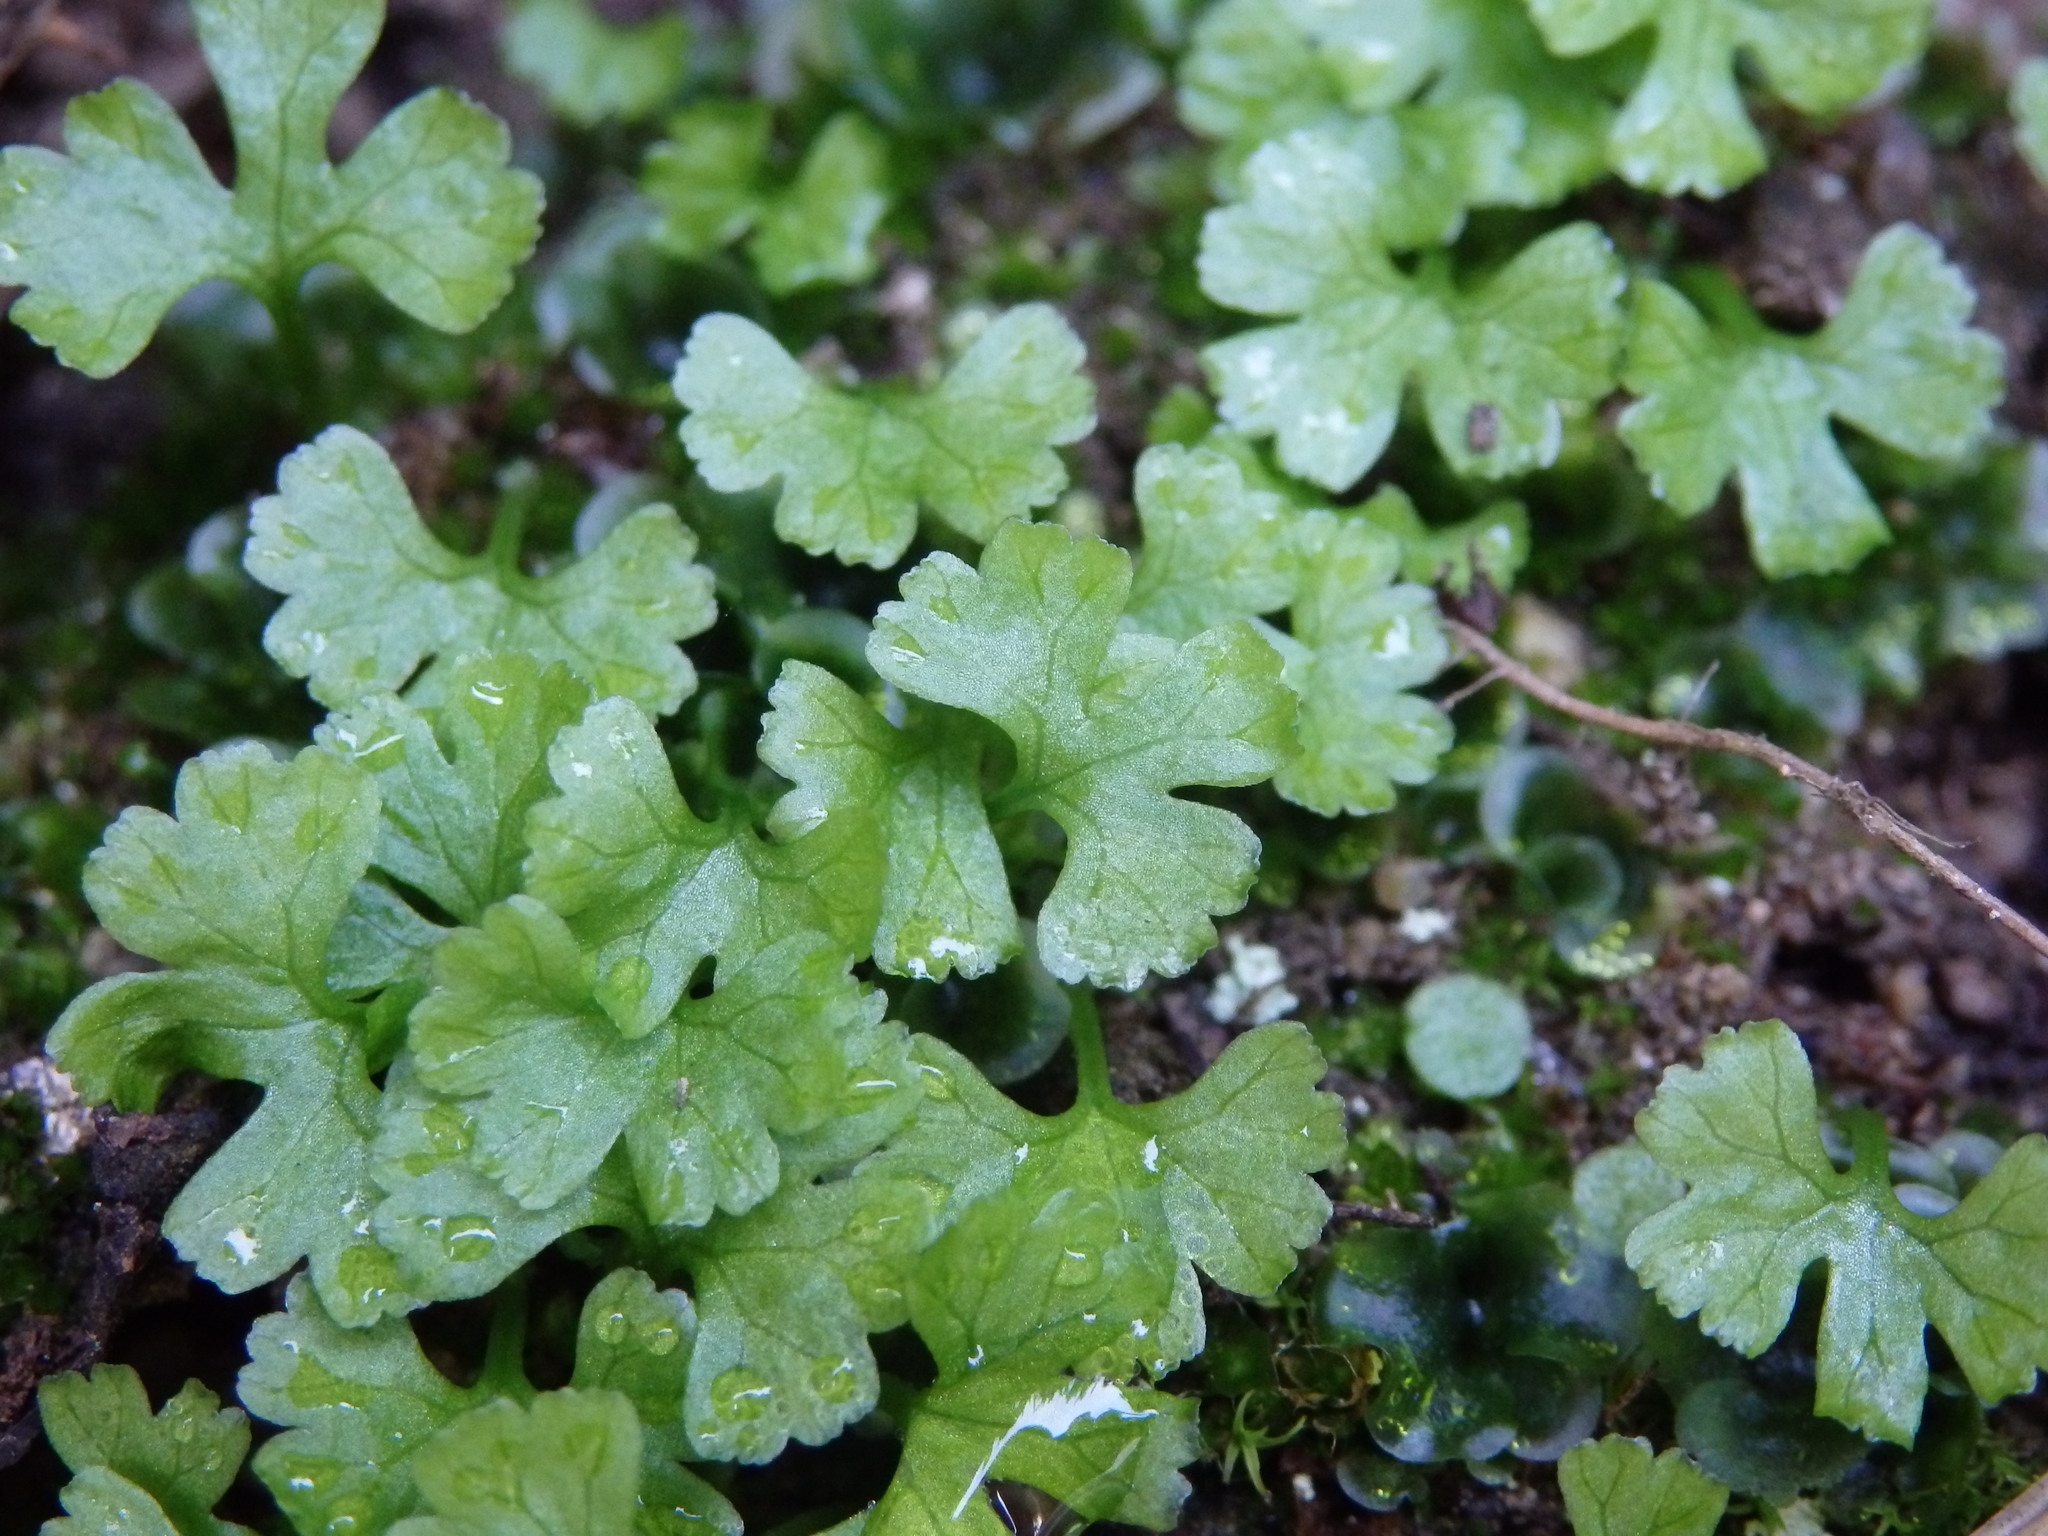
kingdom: Plantae
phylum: Tracheophyta
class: Polypodiopsida
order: Polypodiales
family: Pteridaceae
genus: Anogramma
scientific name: Anogramma leptophylla
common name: Jersey fern
